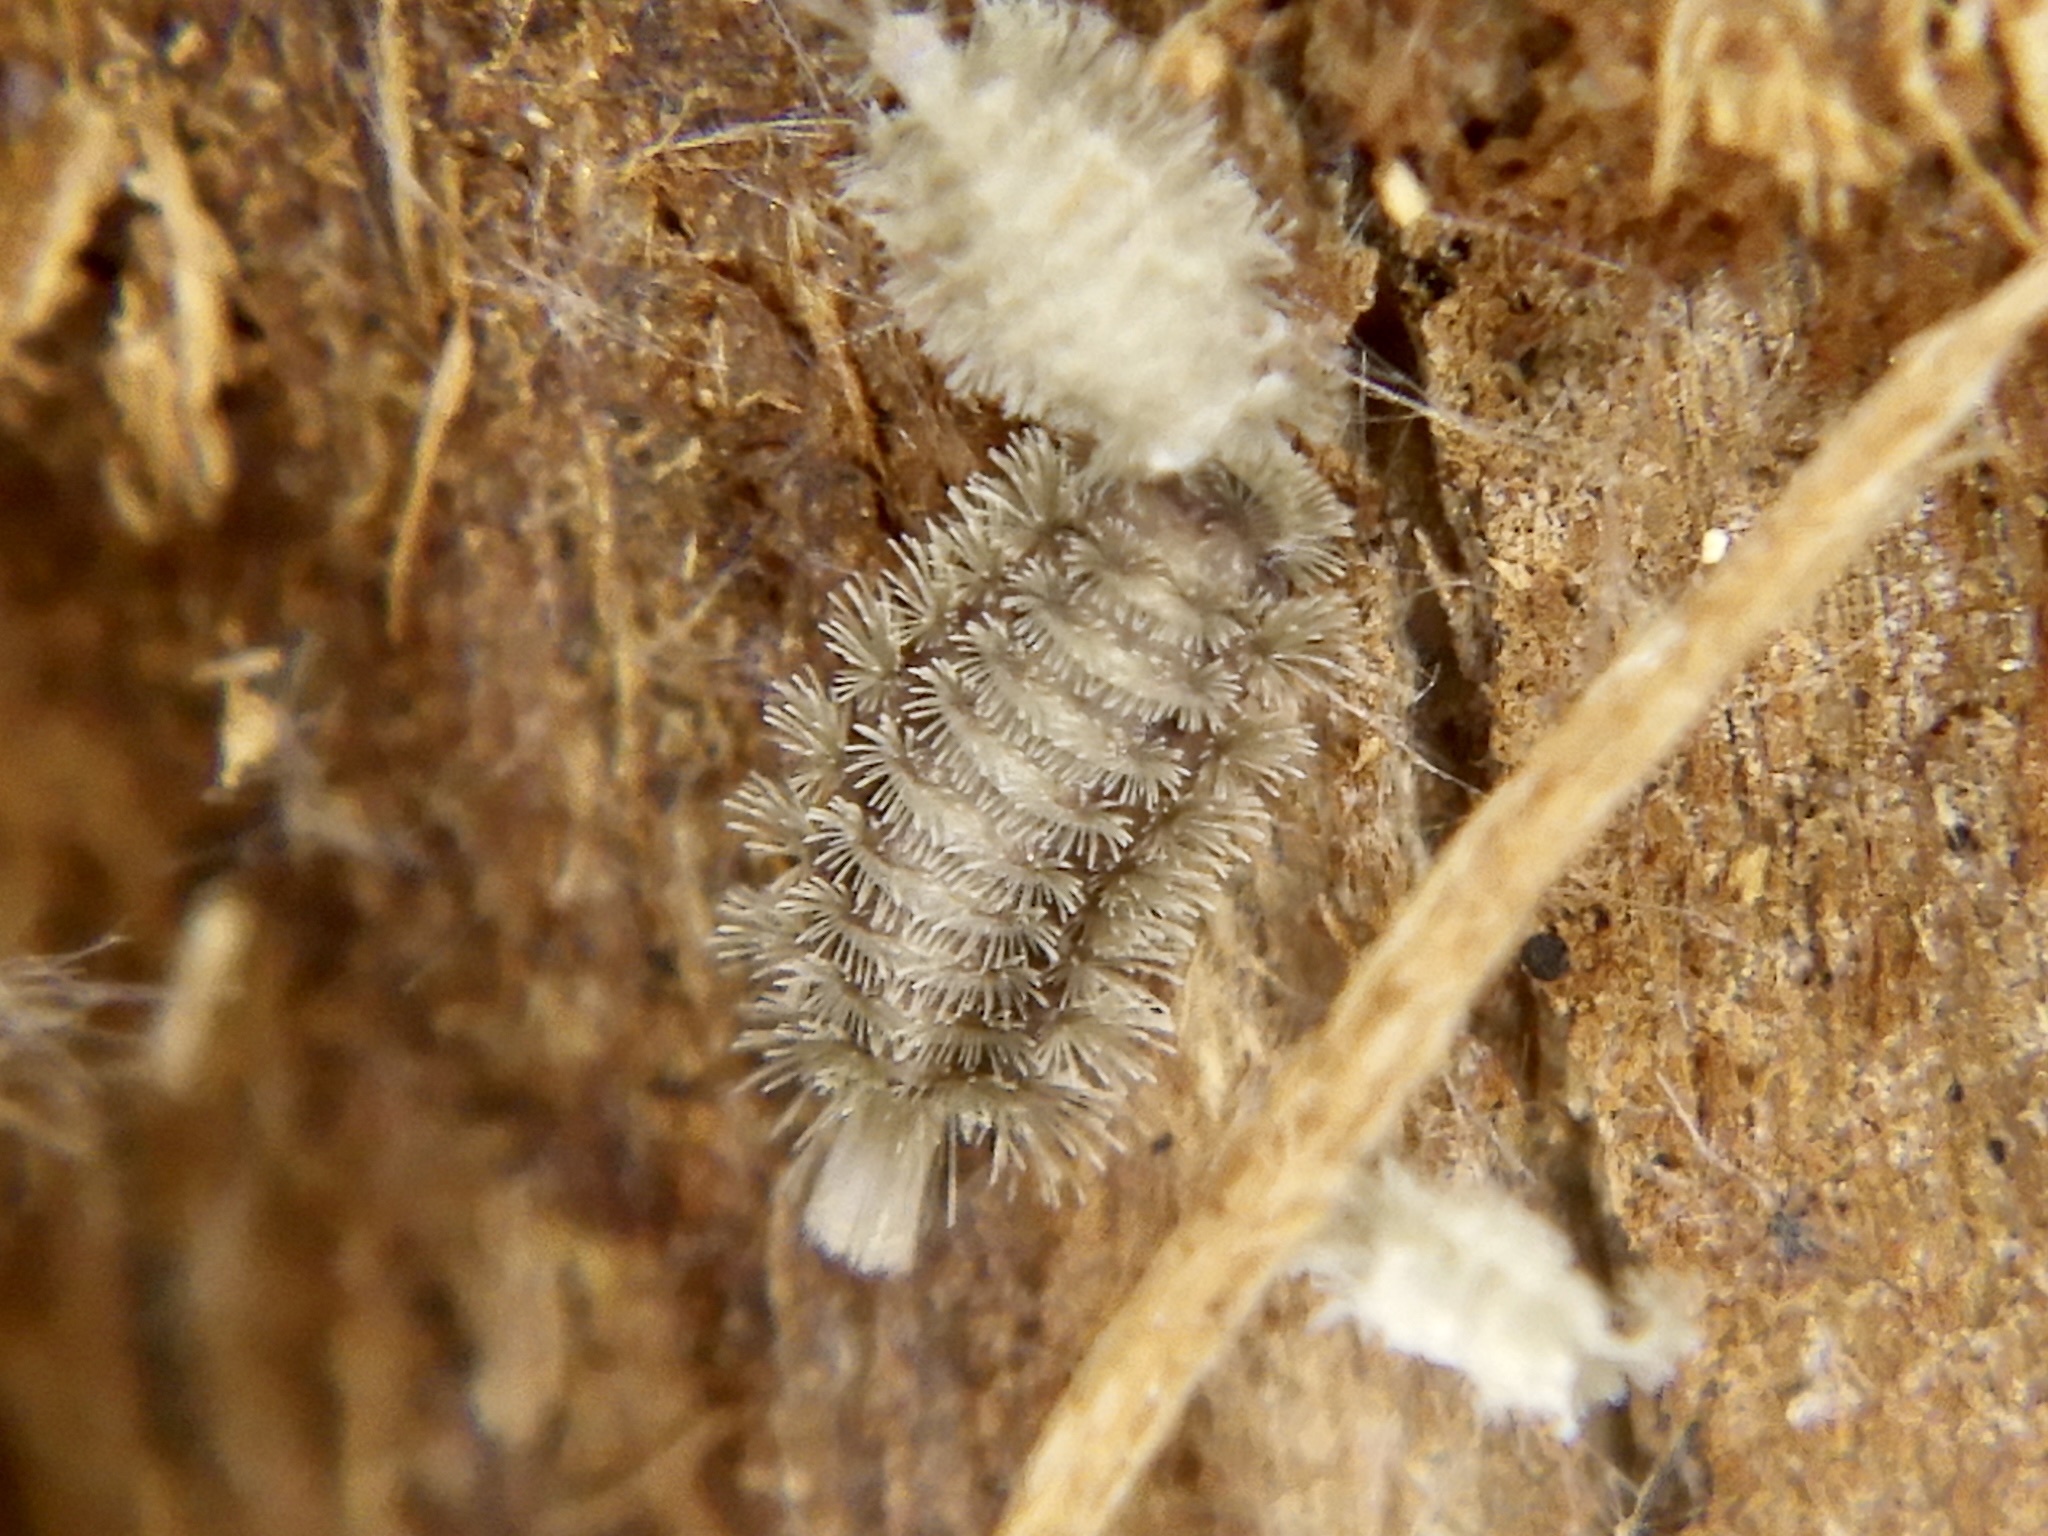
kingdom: Animalia
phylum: Arthropoda
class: Diplopoda
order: Polyxenida
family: Polyxenidae
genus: Eudigraphis
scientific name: Eudigraphis kinutensis
